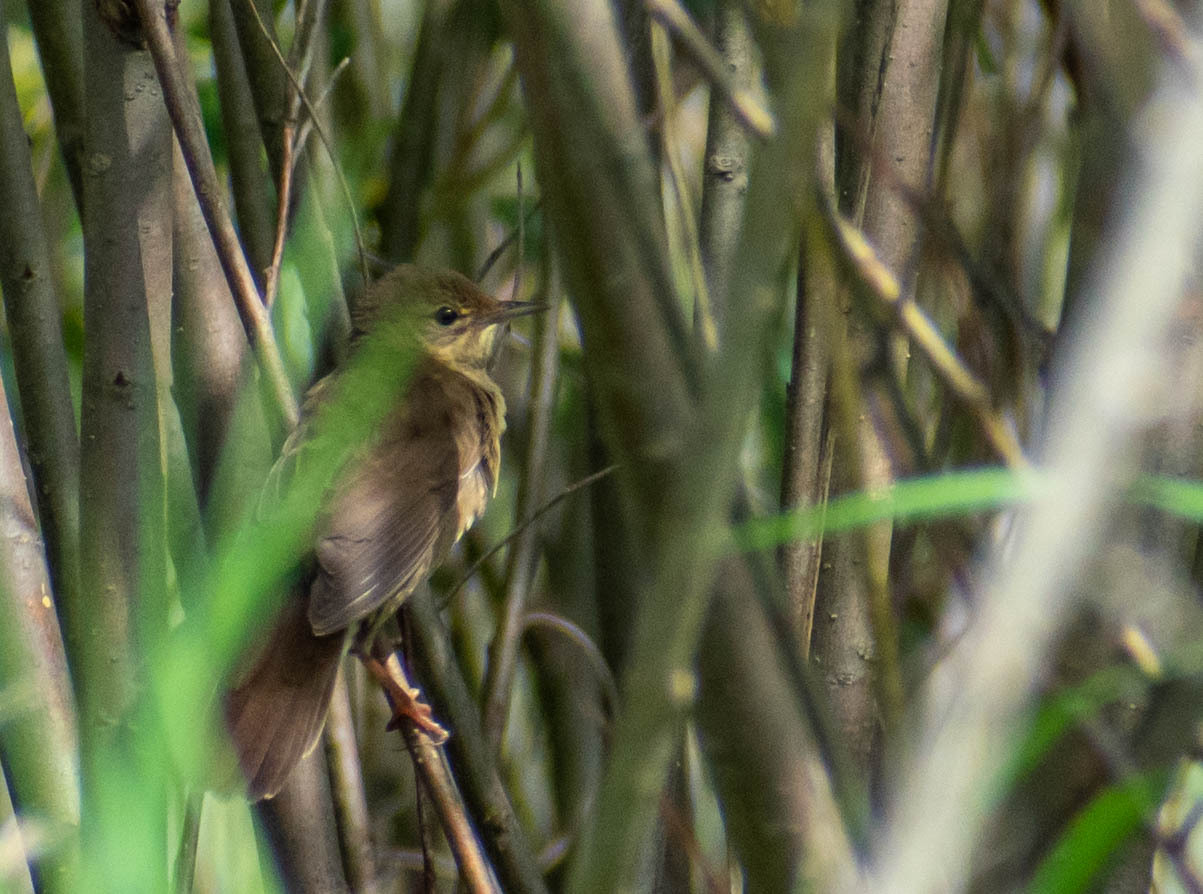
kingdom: Animalia
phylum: Chordata
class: Aves
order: Passeriformes
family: Locustellidae
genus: Locustella
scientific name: Locustella fluviatilis
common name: River warbler
